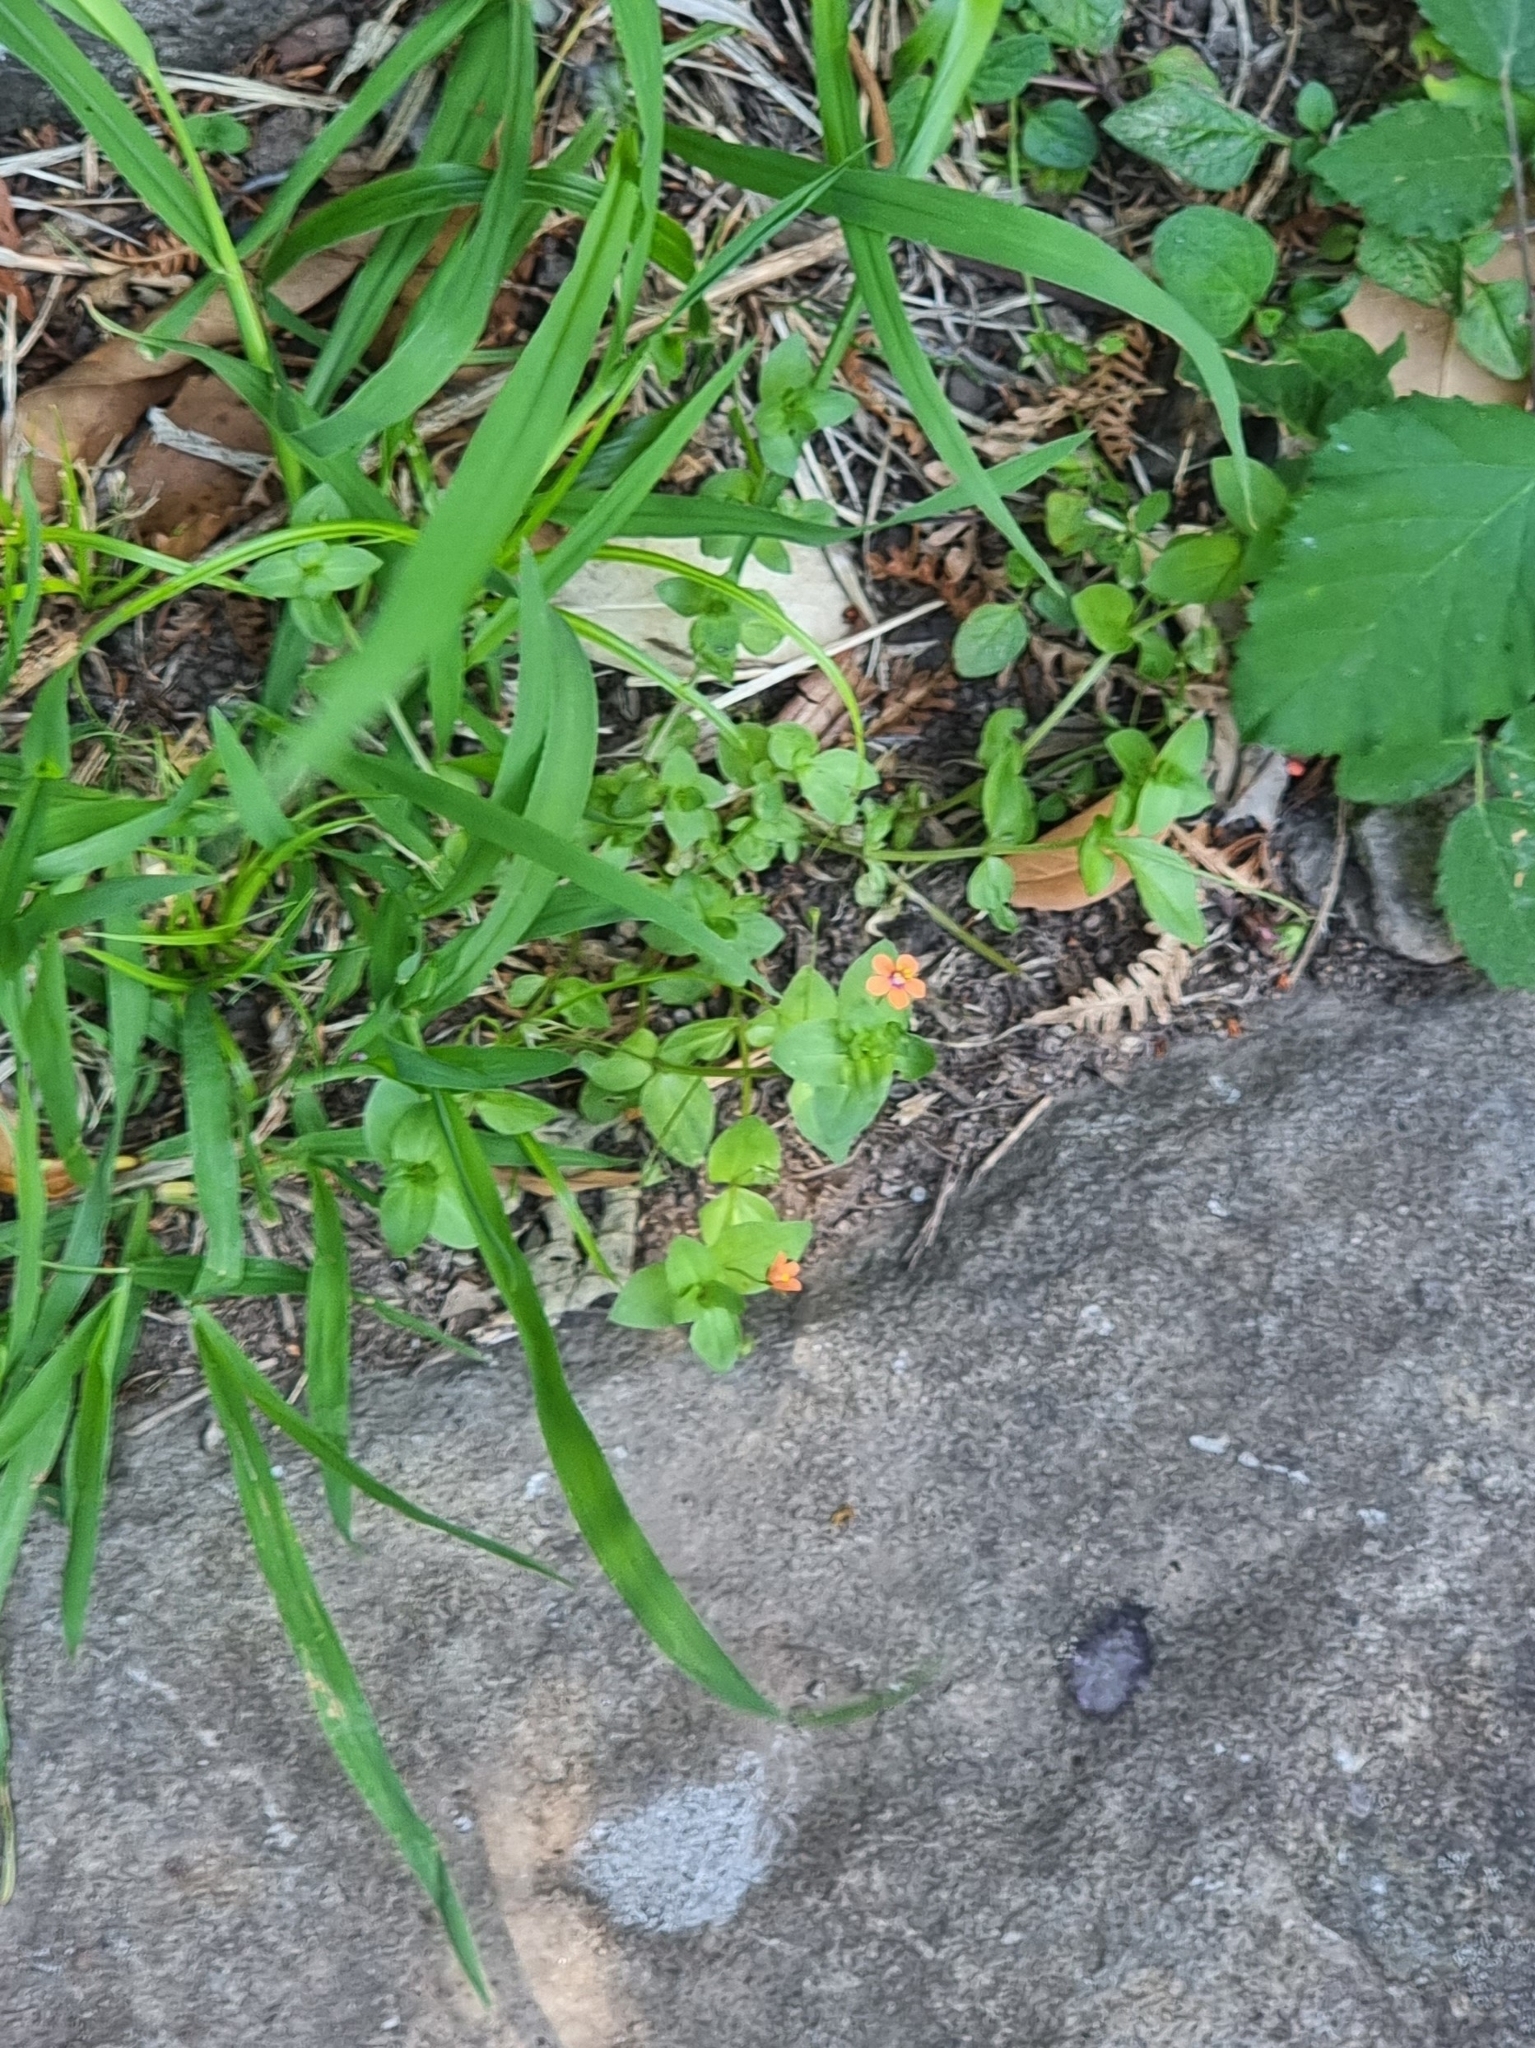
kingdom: Plantae
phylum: Tracheophyta
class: Magnoliopsida
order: Ericales
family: Primulaceae
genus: Lysimachia
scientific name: Lysimachia arvensis
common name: Scarlet pimpernel
